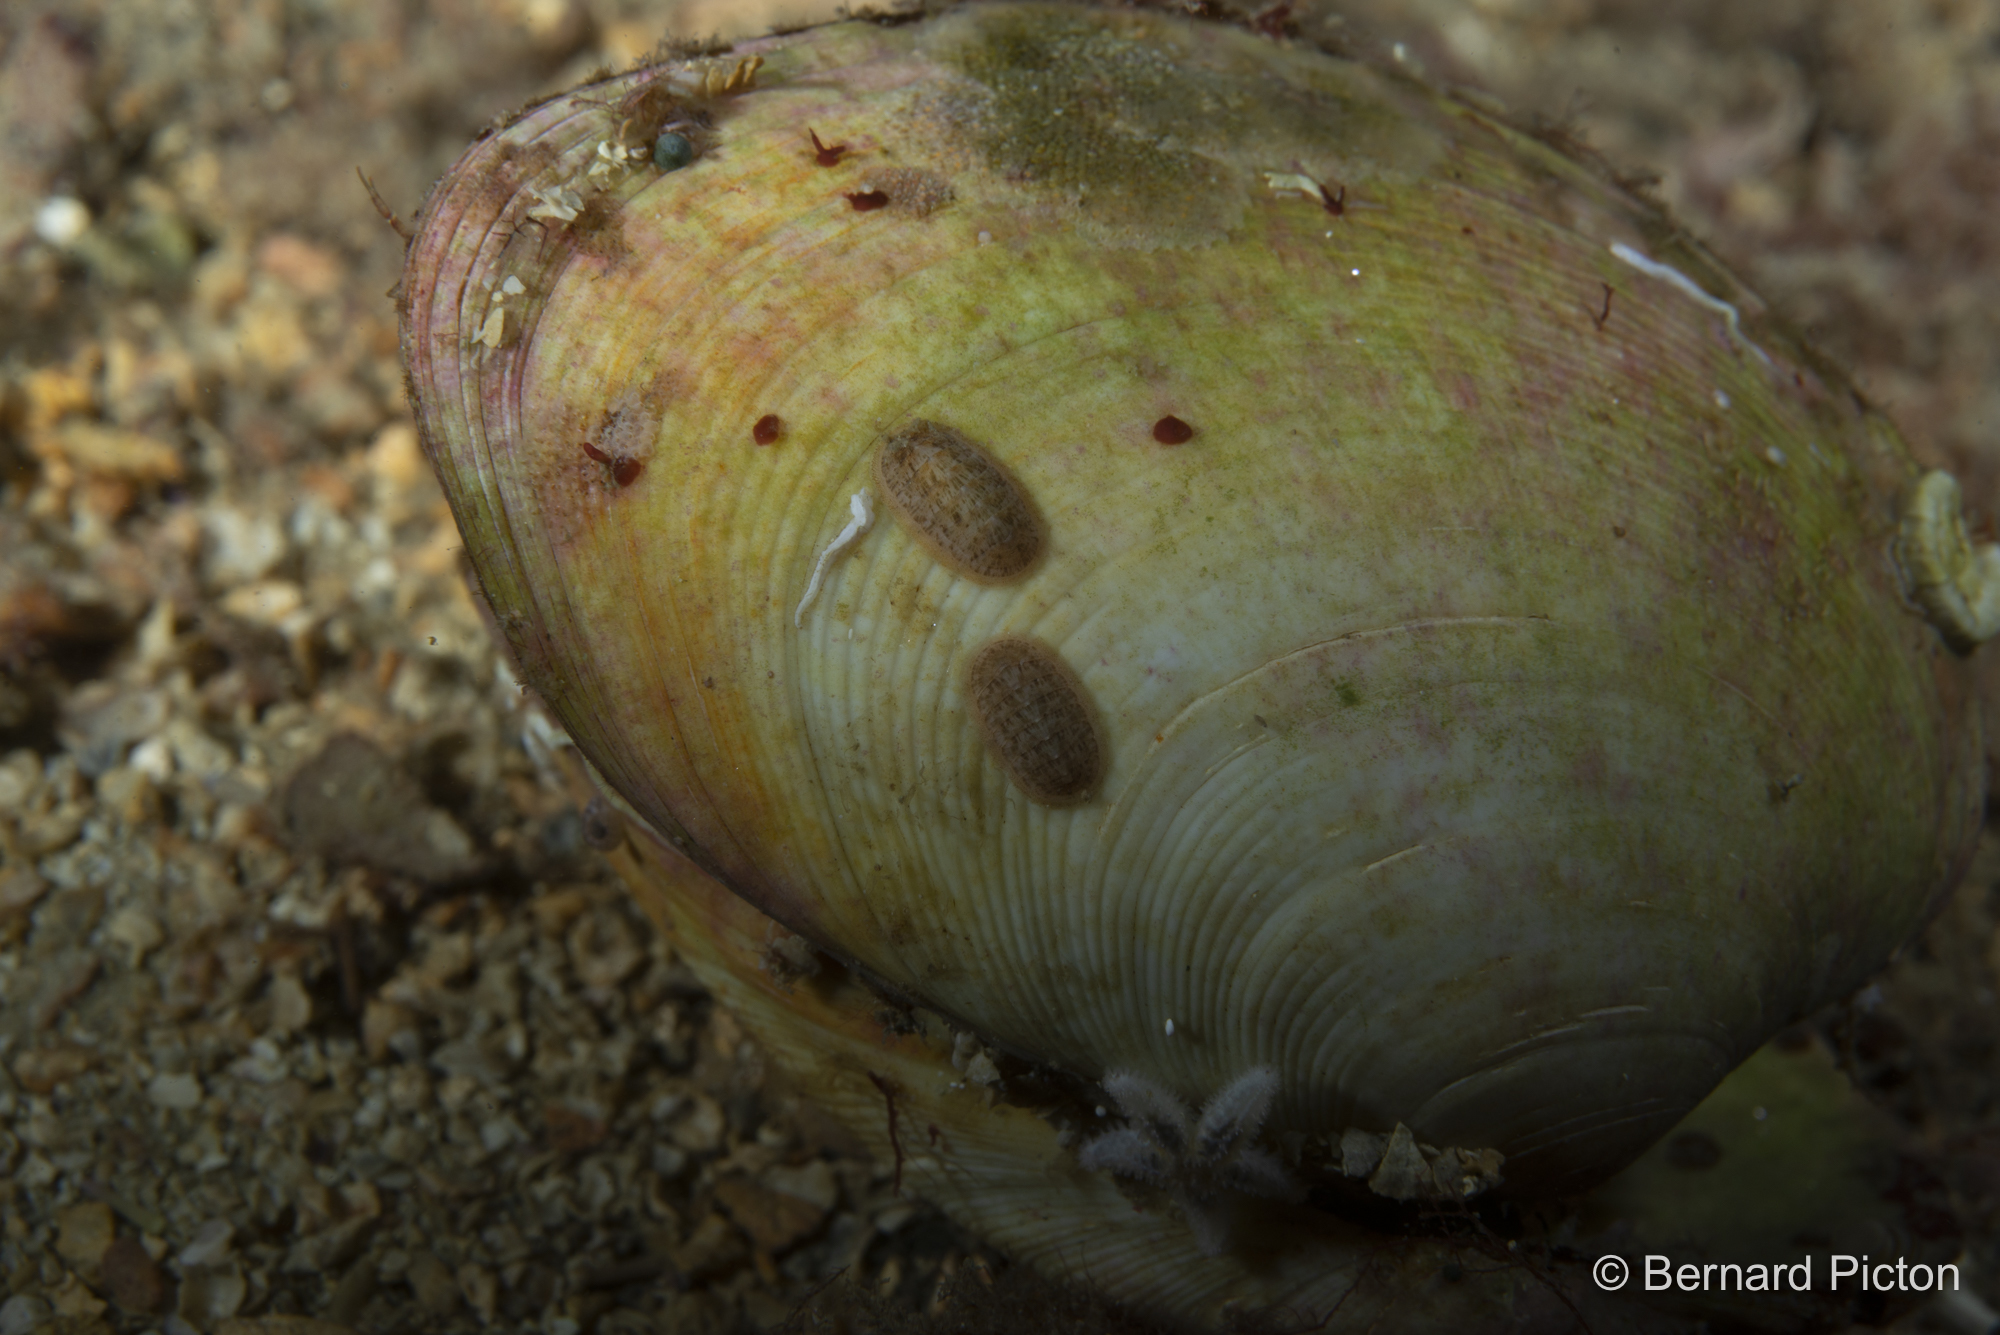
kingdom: Animalia
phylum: Mollusca
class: Polyplacophora
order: Lepidopleurida
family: Leptochitonidae
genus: Leptochiton
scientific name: Leptochiton asellus
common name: Coat-of-mail chiton
